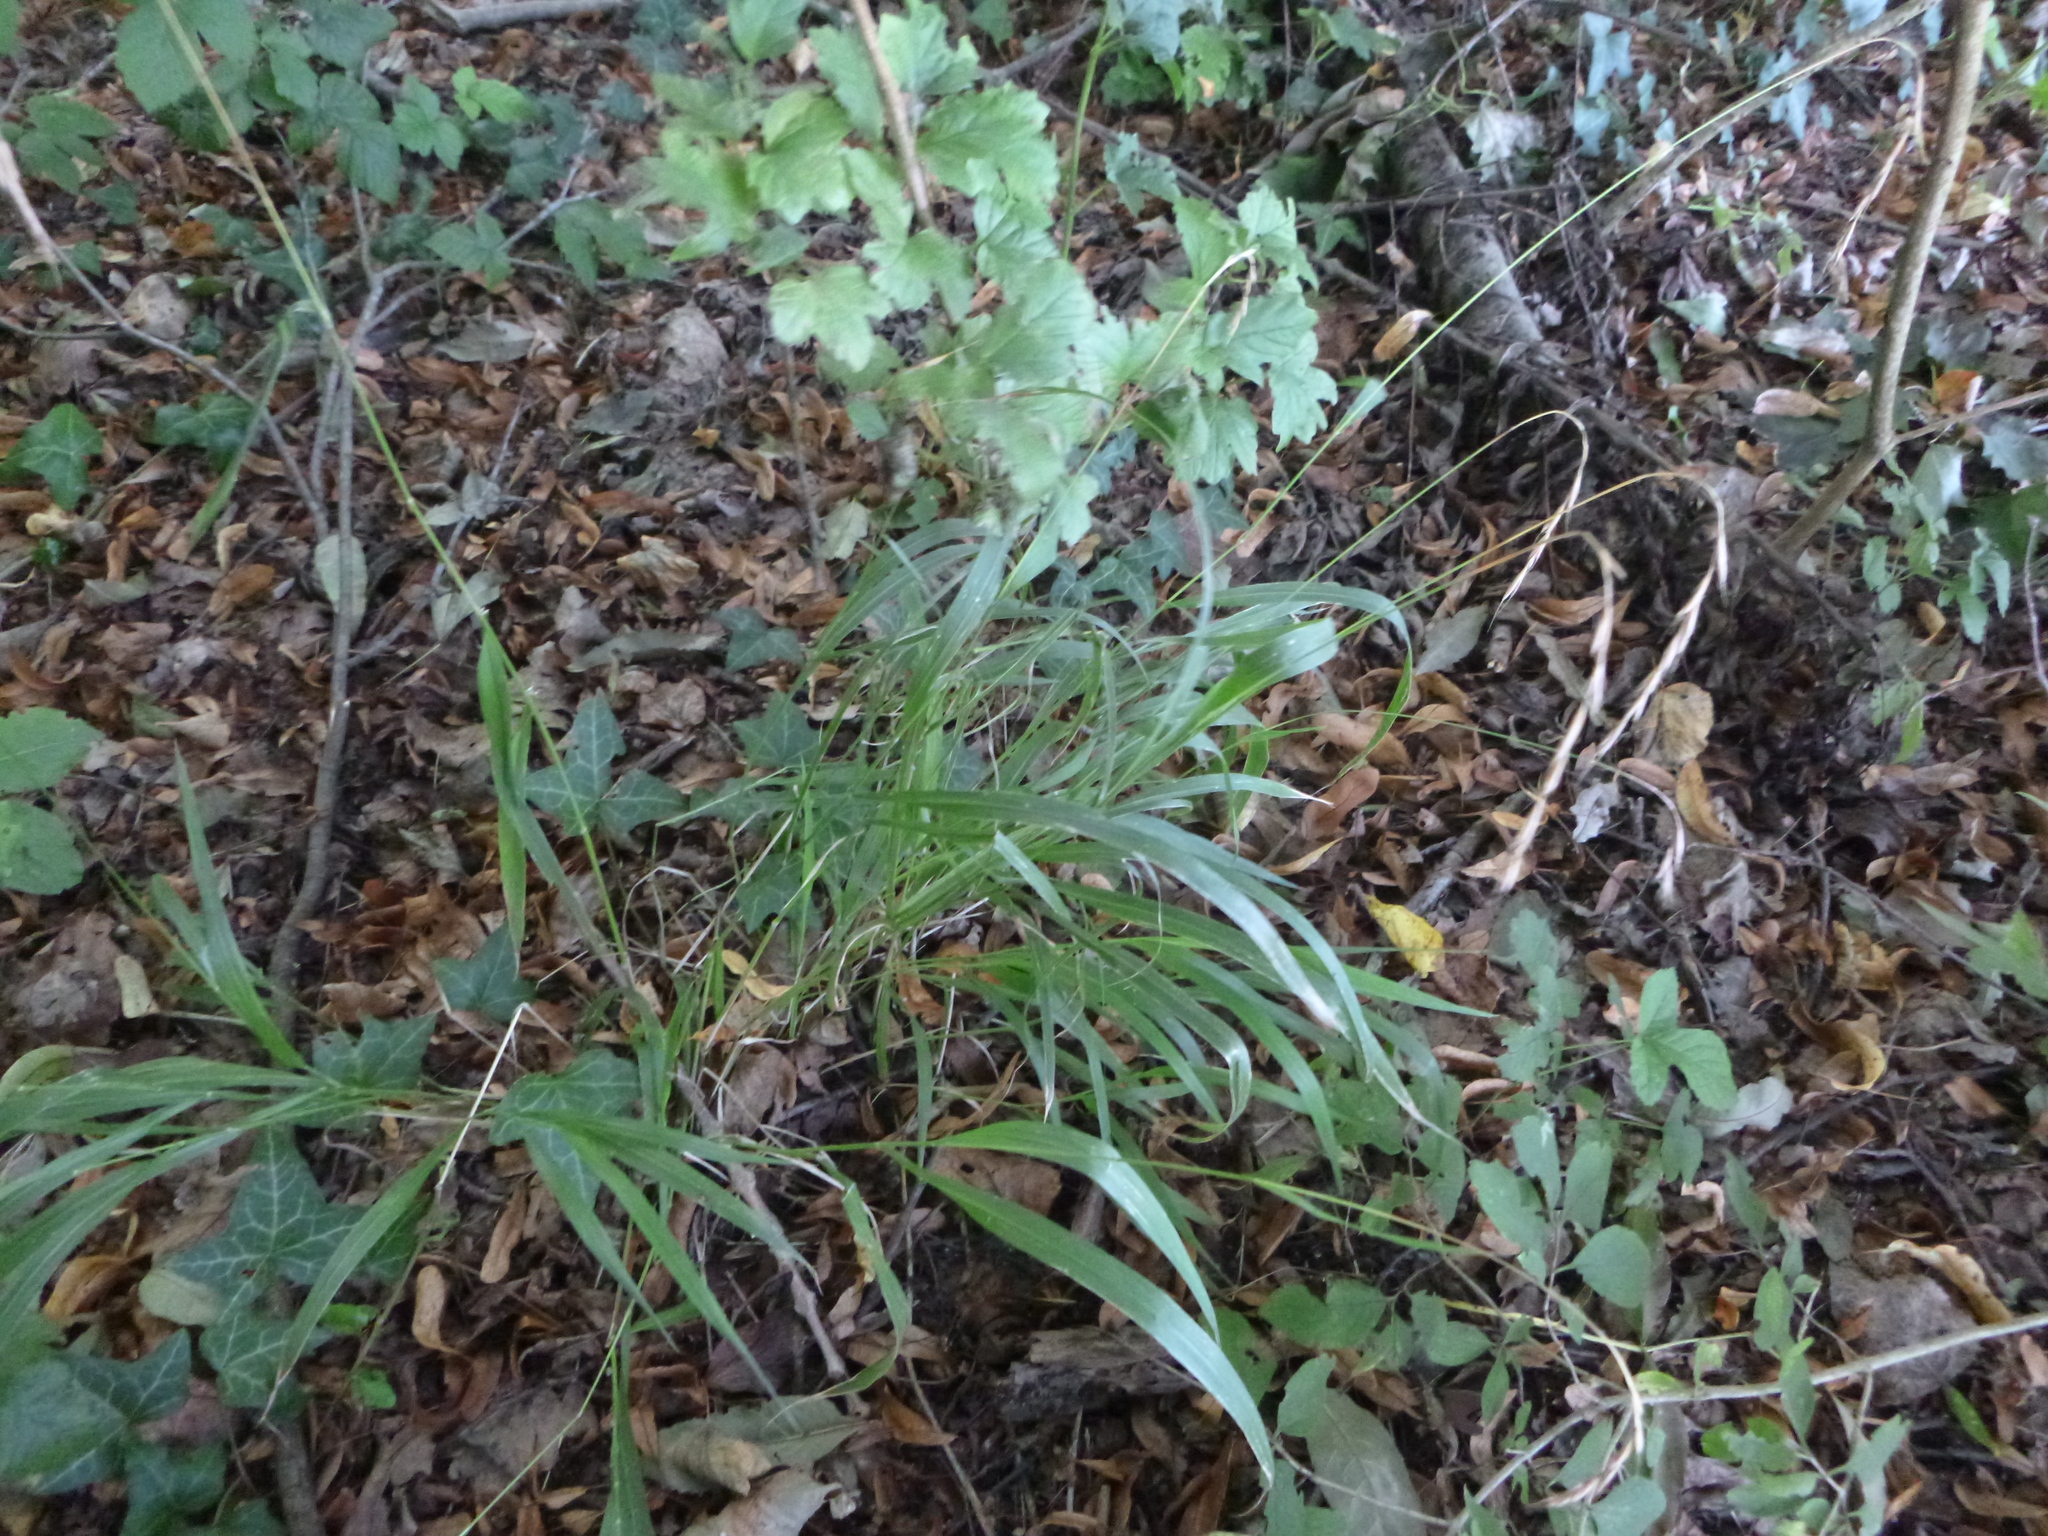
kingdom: Plantae
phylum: Tracheophyta
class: Liliopsida
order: Poales
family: Poaceae
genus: Elymus
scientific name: Elymus caninus
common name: Bearded couch
